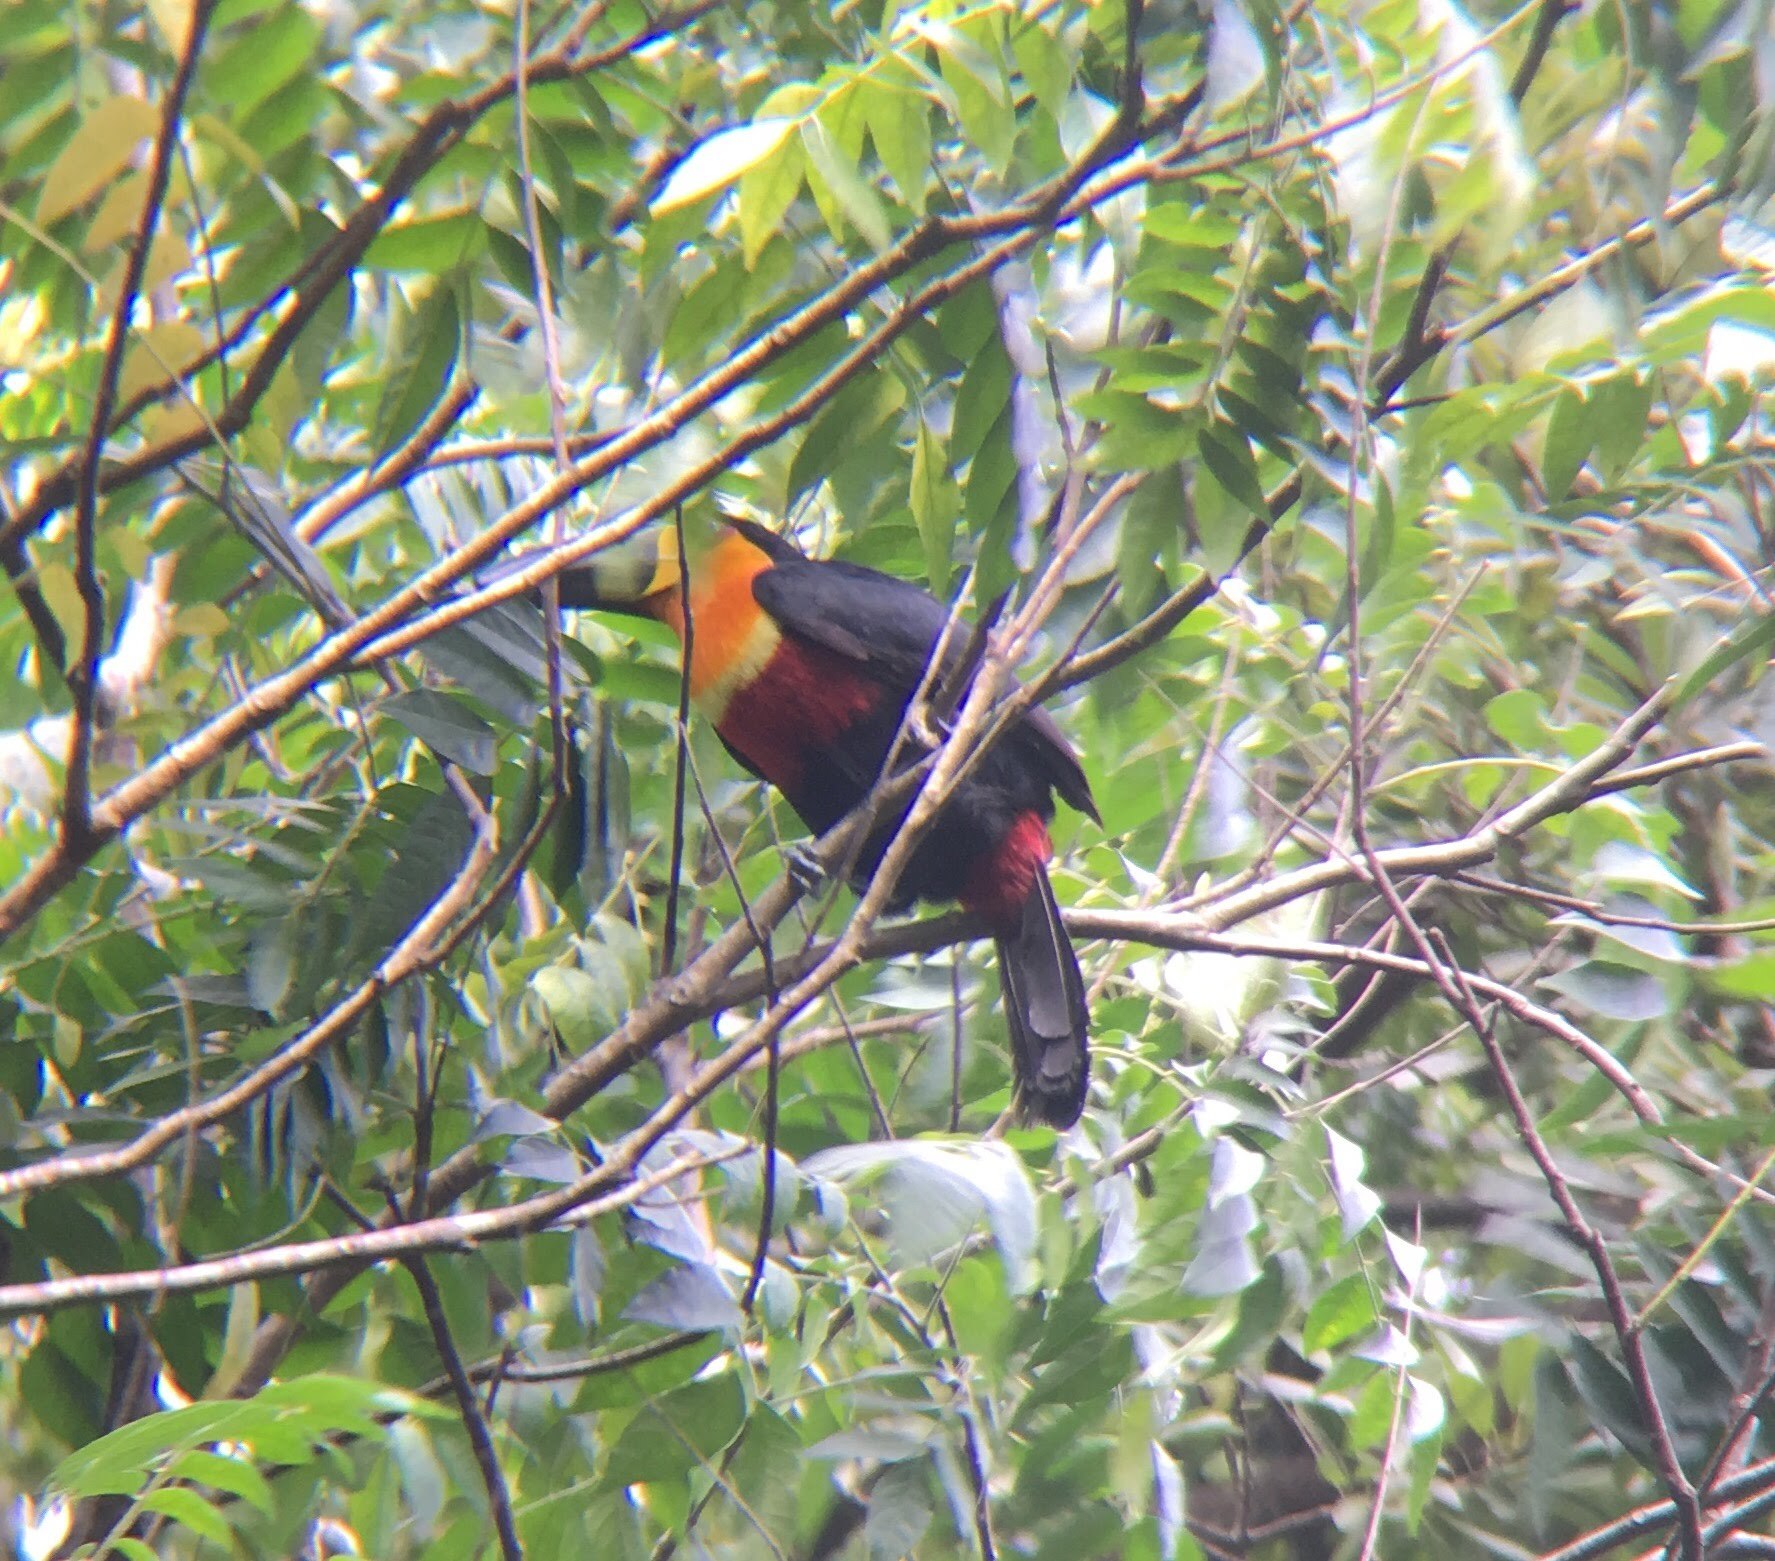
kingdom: Animalia
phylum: Chordata
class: Aves
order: Piciformes
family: Ramphastidae
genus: Ramphastos
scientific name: Ramphastos vitellinus
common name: Channel-billed toucan
